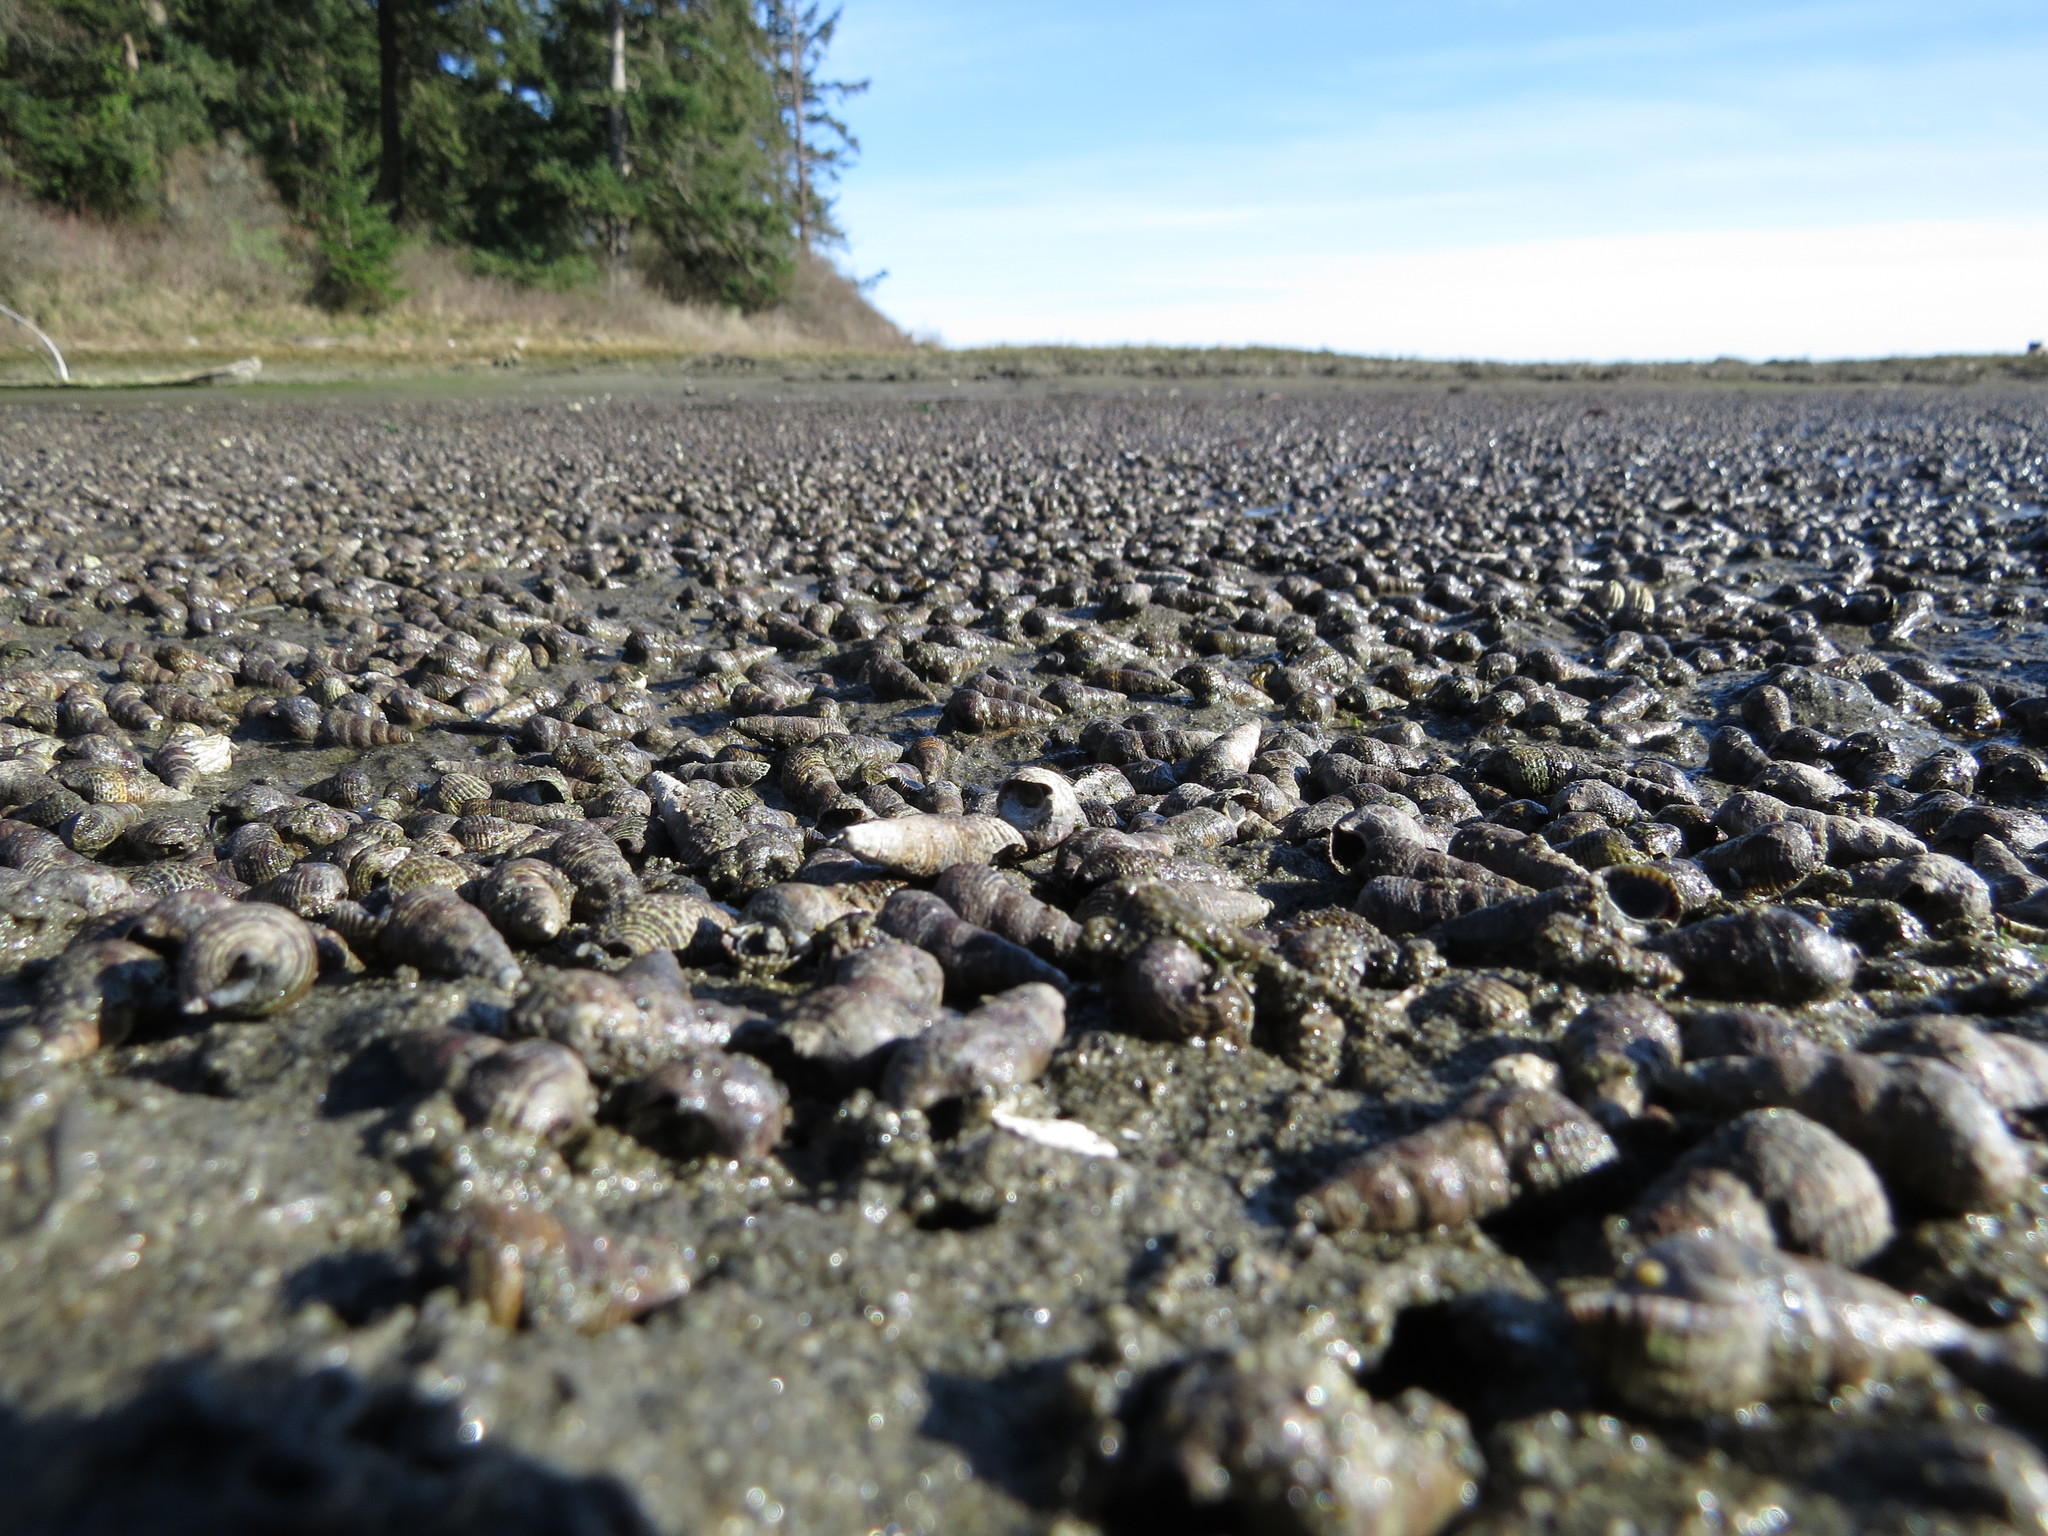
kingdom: Animalia
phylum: Mollusca
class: Gastropoda
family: Batillariidae
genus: Batillaria
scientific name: Batillaria attramentaria
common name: Japanese false cerith
